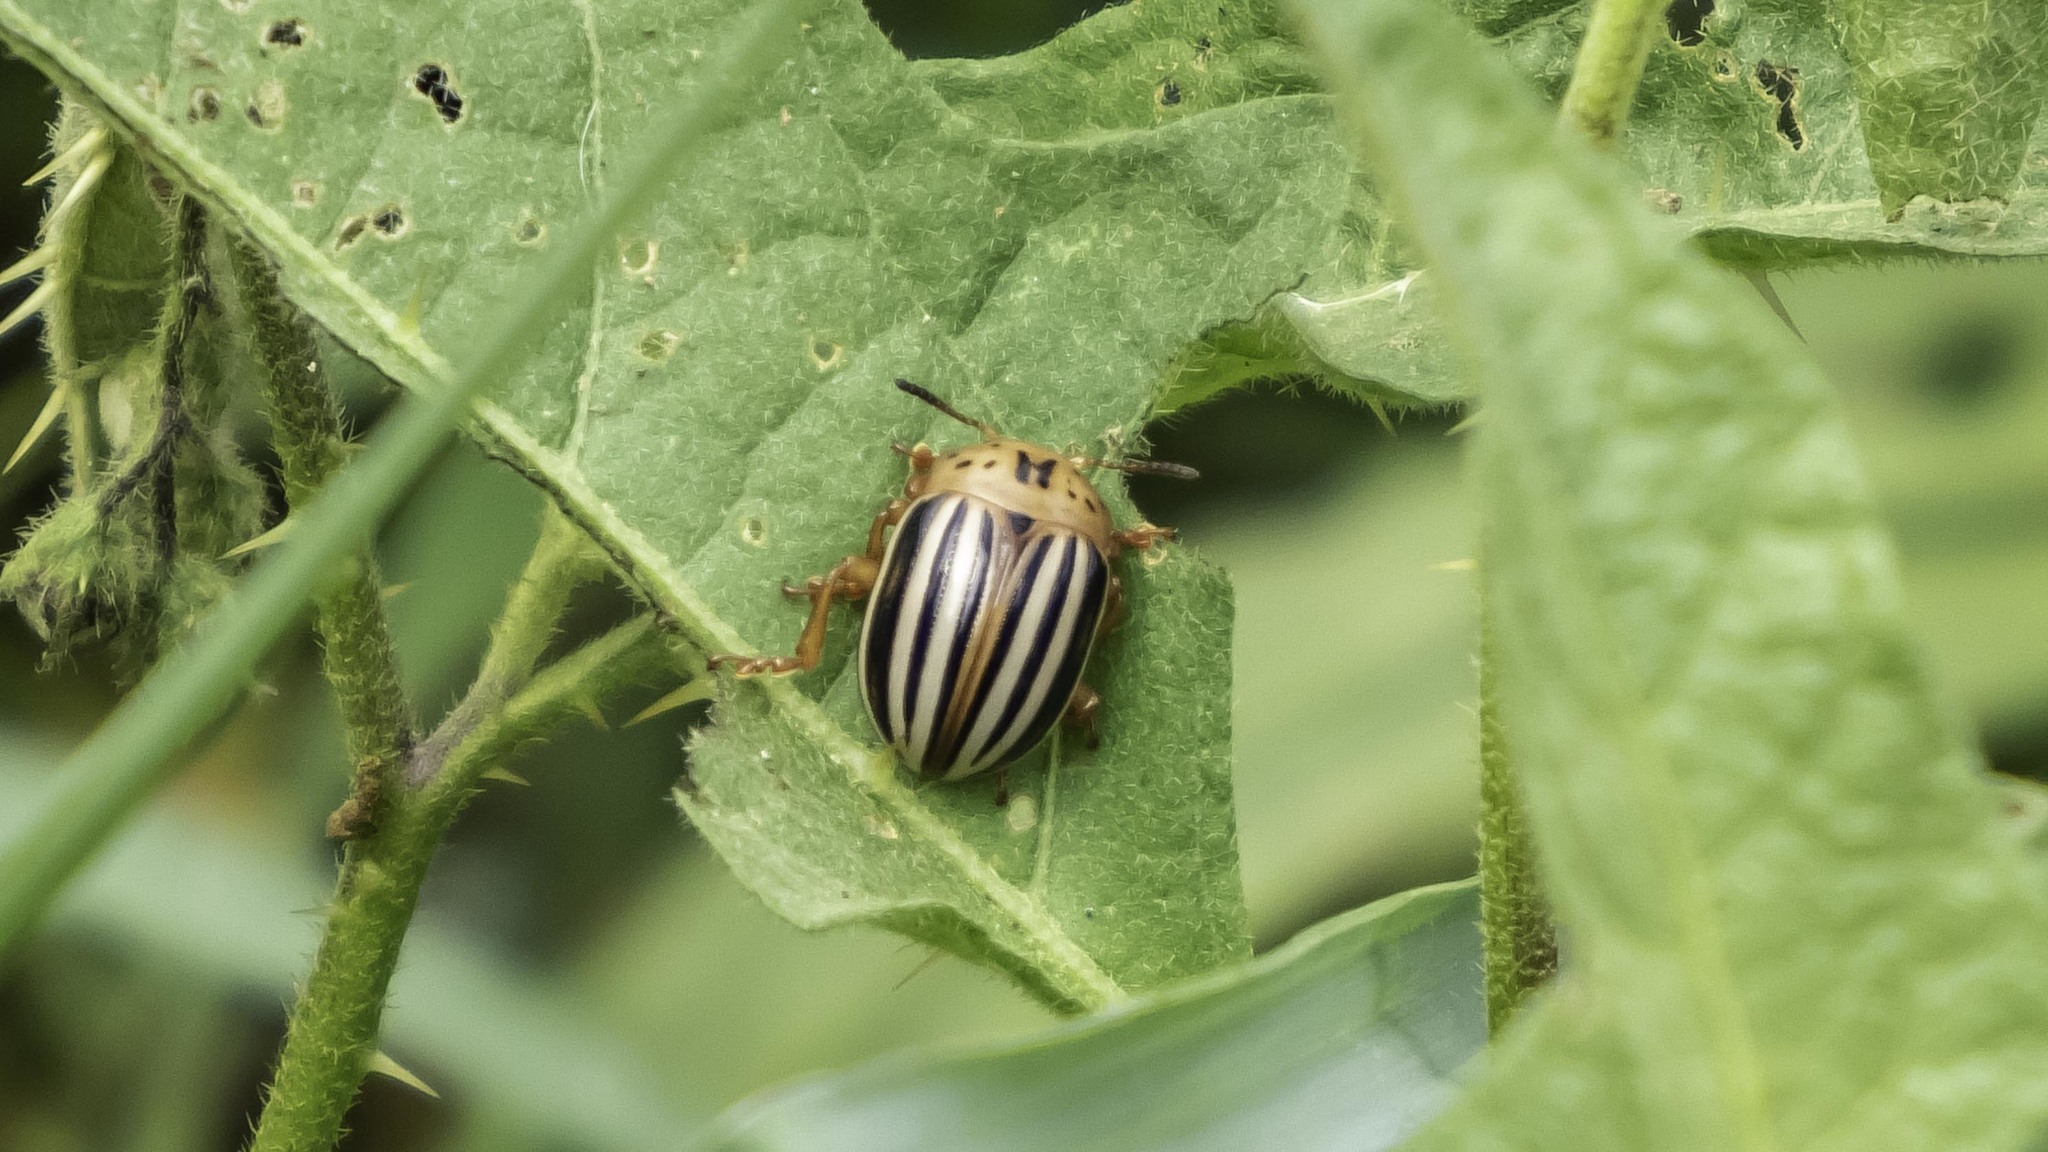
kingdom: Animalia
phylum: Arthropoda
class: Insecta
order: Coleoptera
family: Chrysomelidae
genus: Leptinotarsa
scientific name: Leptinotarsa juncta
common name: False potato beetle
